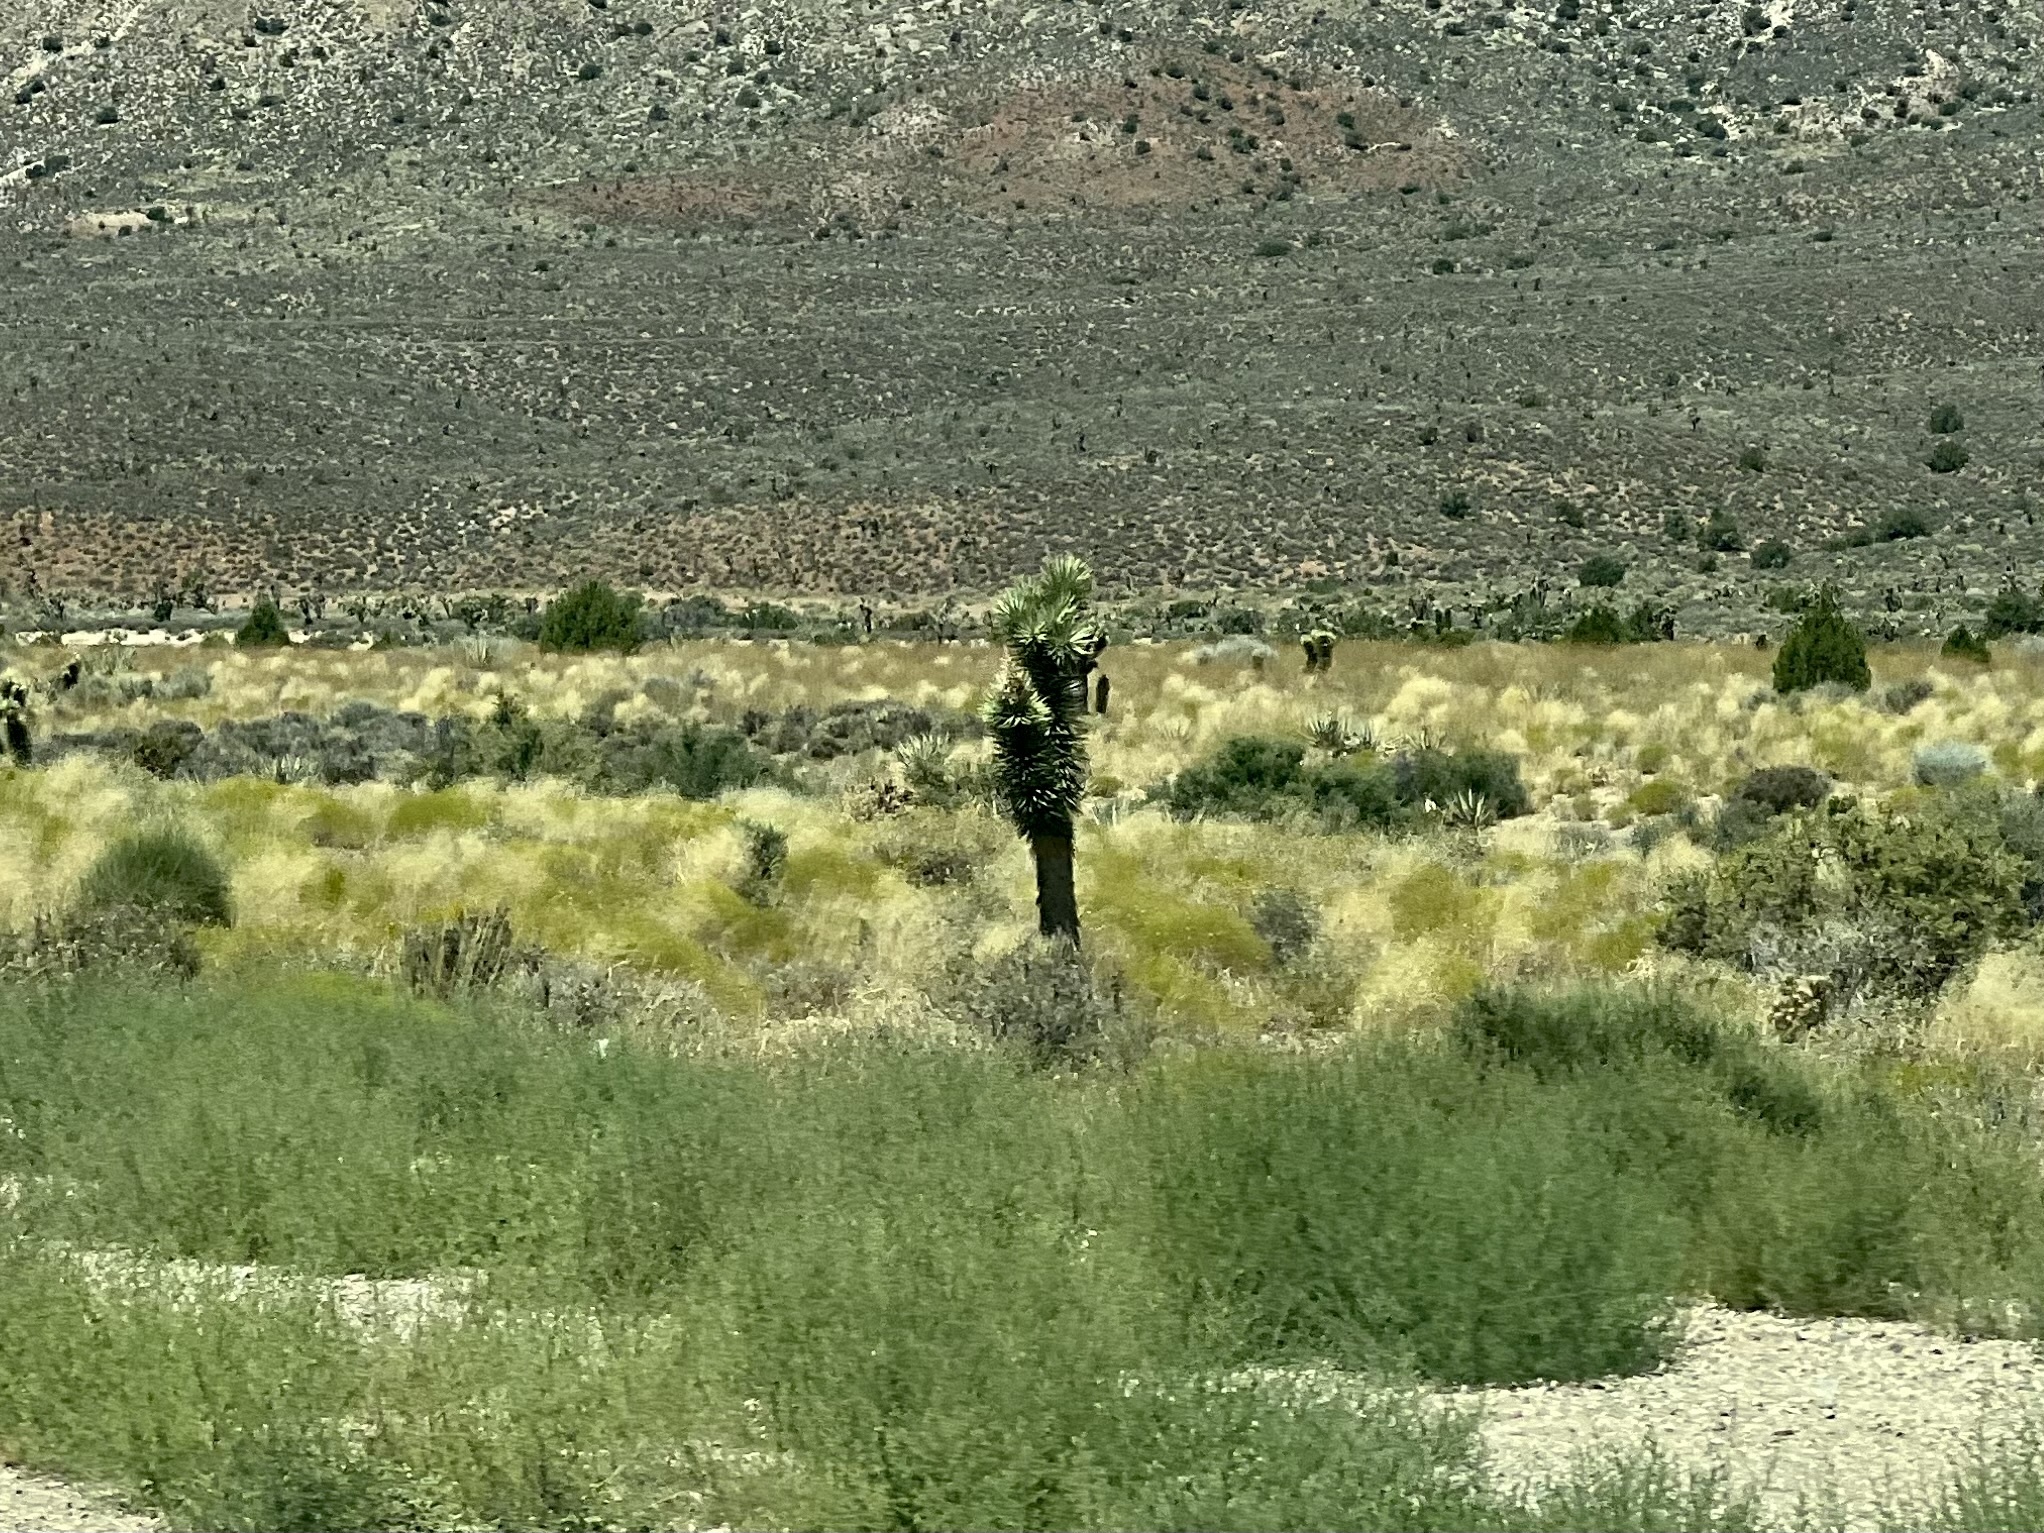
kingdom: Plantae
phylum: Tracheophyta
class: Liliopsida
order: Asparagales
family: Asparagaceae
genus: Yucca
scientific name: Yucca brevifolia
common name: Joshua tree
